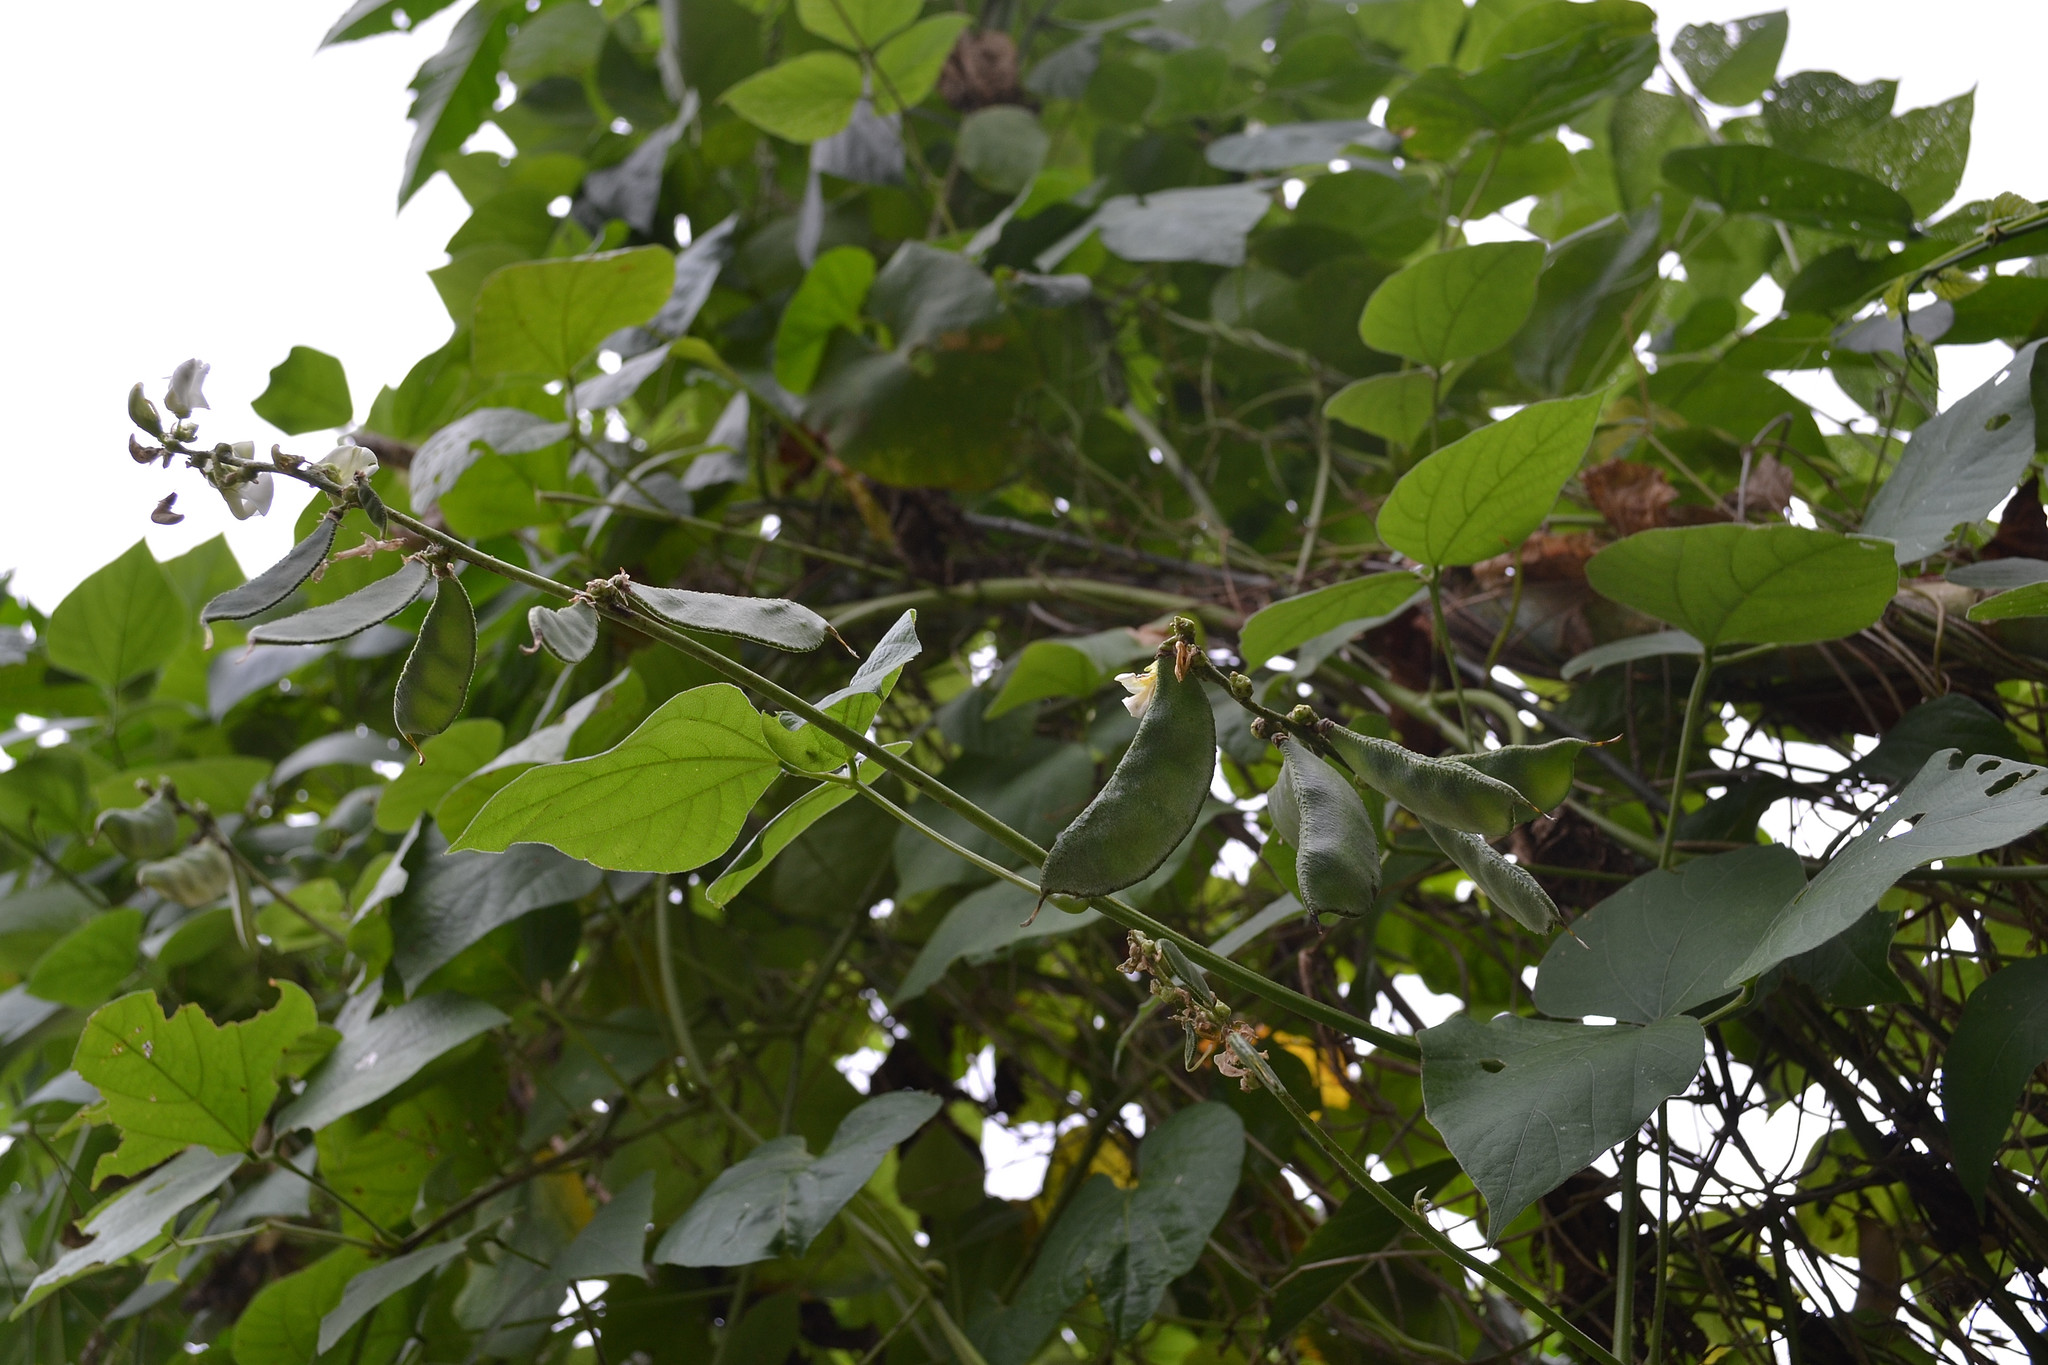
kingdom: Plantae
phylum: Tracheophyta
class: Magnoliopsida
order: Fabales
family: Fabaceae
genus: Lablab
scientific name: Lablab purpureus
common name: Lablab-bean
